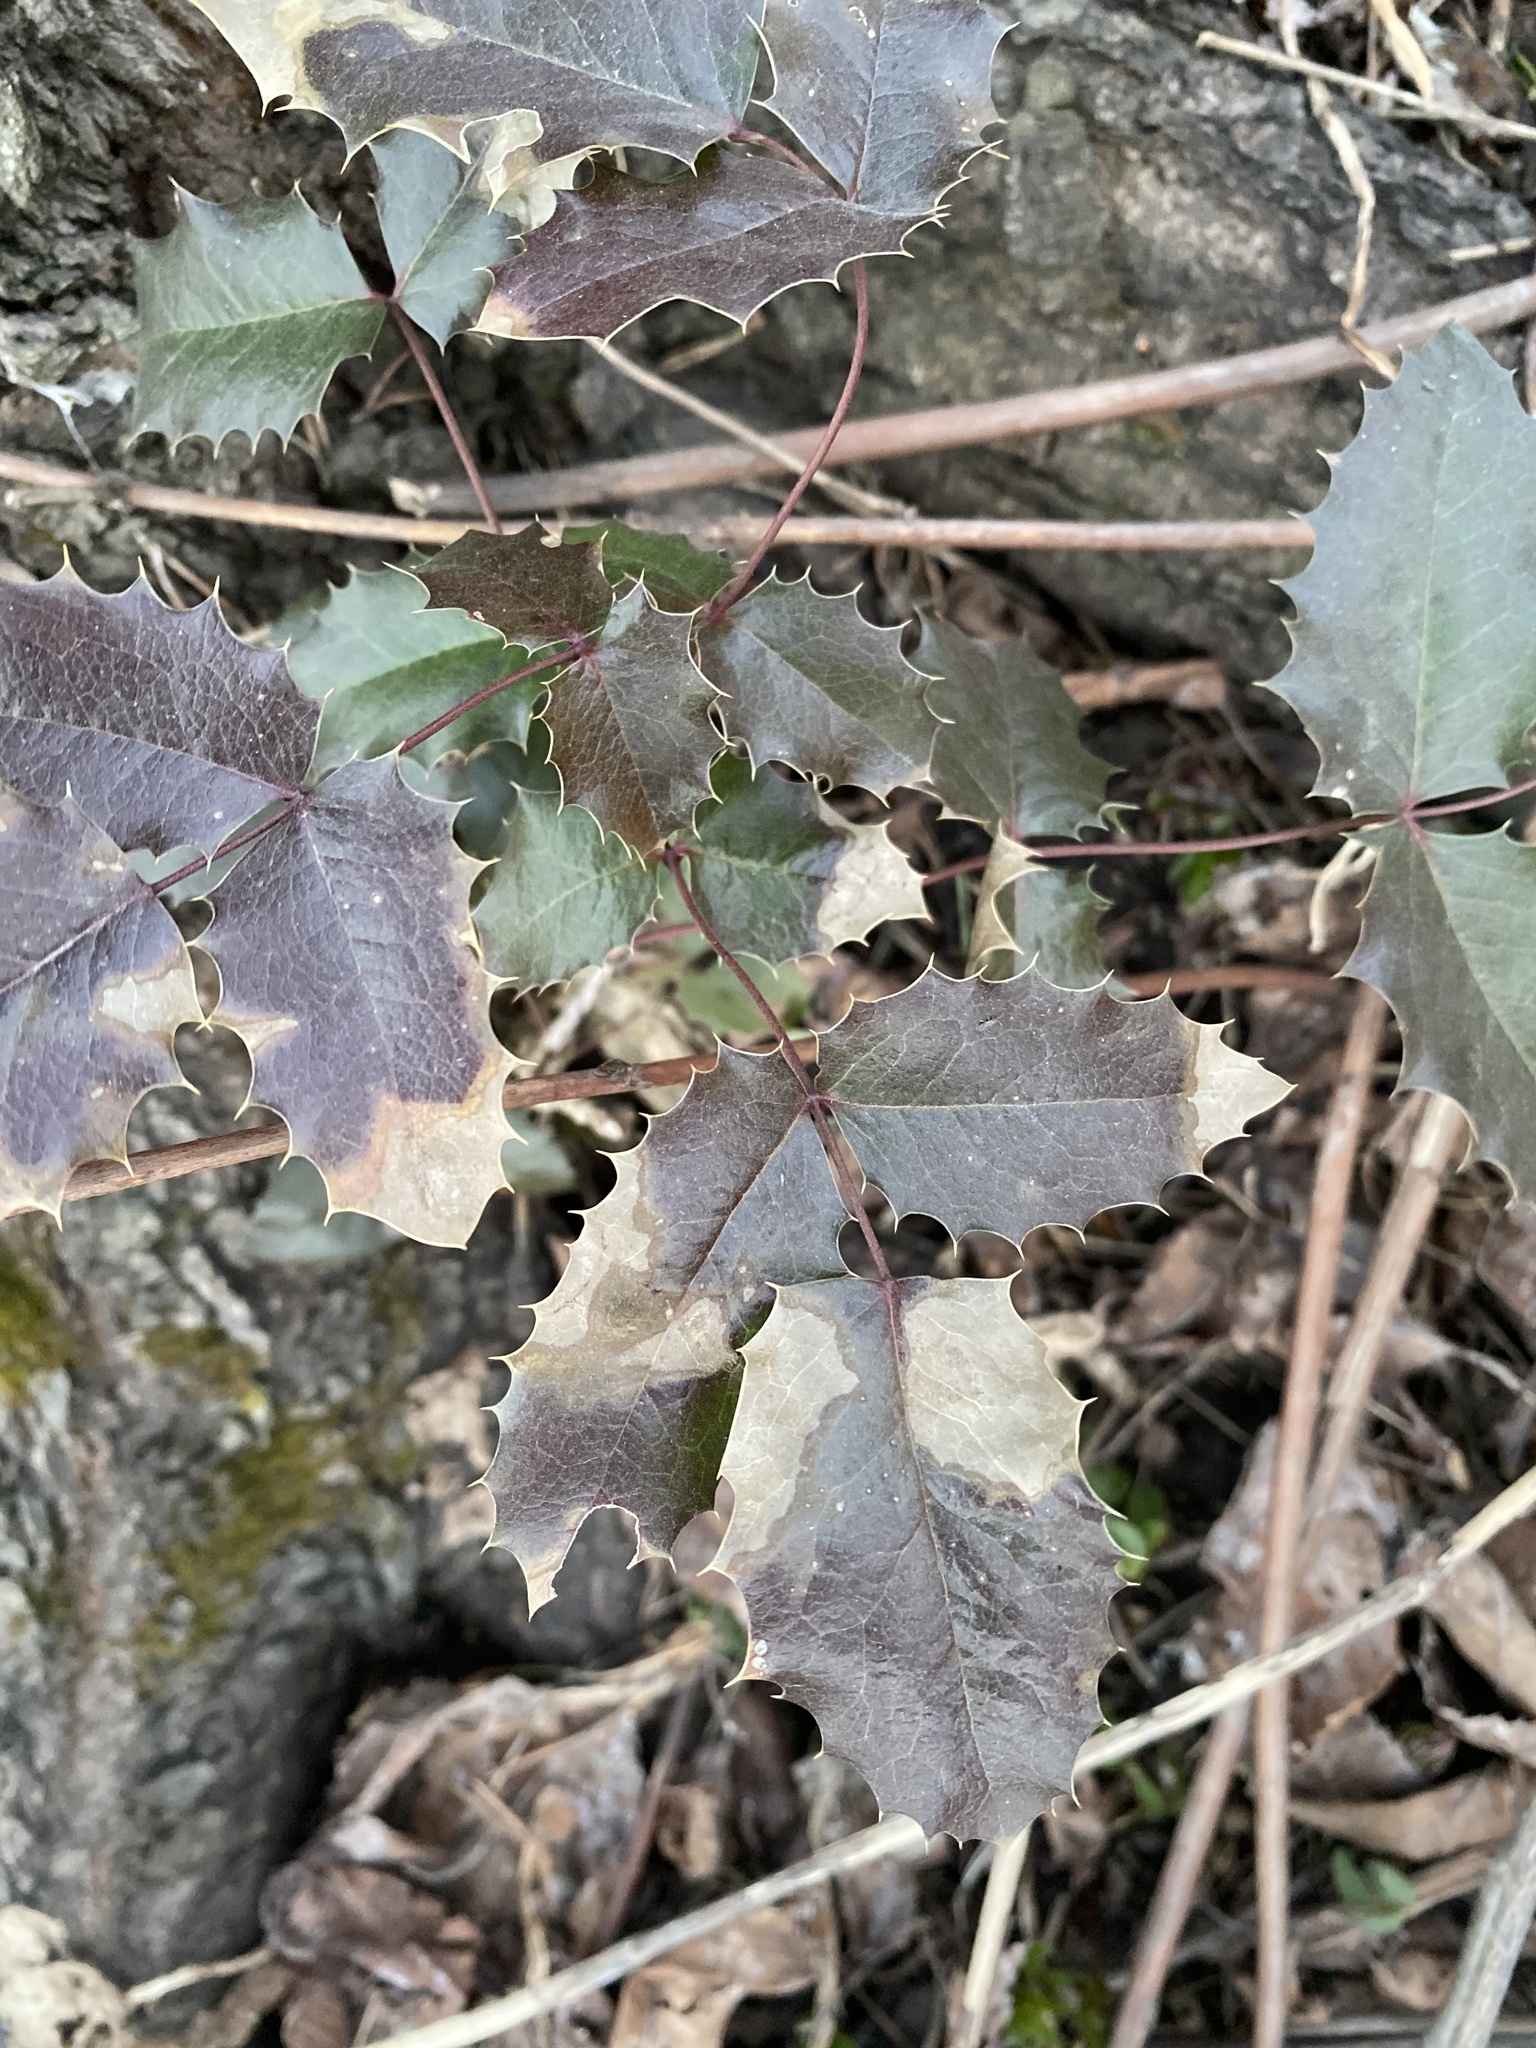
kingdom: Plantae
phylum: Tracheophyta
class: Magnoliopsida
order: Ranunculales
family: Berberidaceae
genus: Mahonia
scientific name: Mahonia aquifolium
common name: Oregon-grape
